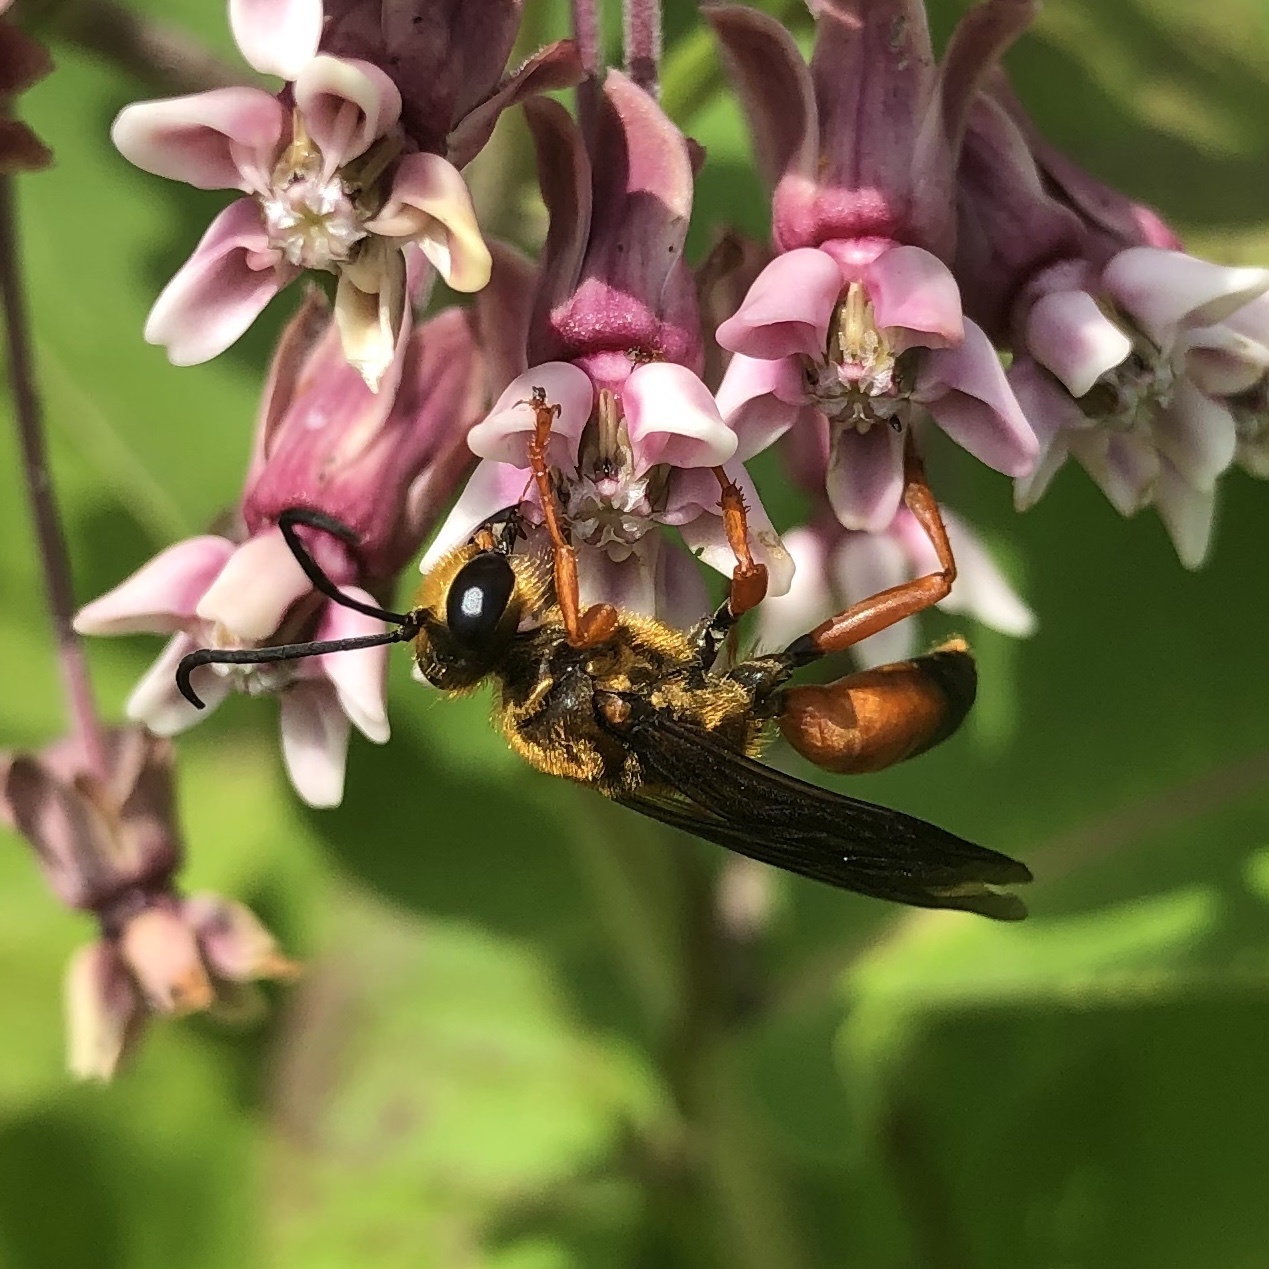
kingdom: Animalia
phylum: Arthropoda
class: Insecta
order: Hymenoptera
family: Sphecidae
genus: Sphex
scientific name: Sphex ichneumoneus
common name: Great golden digger wasp
